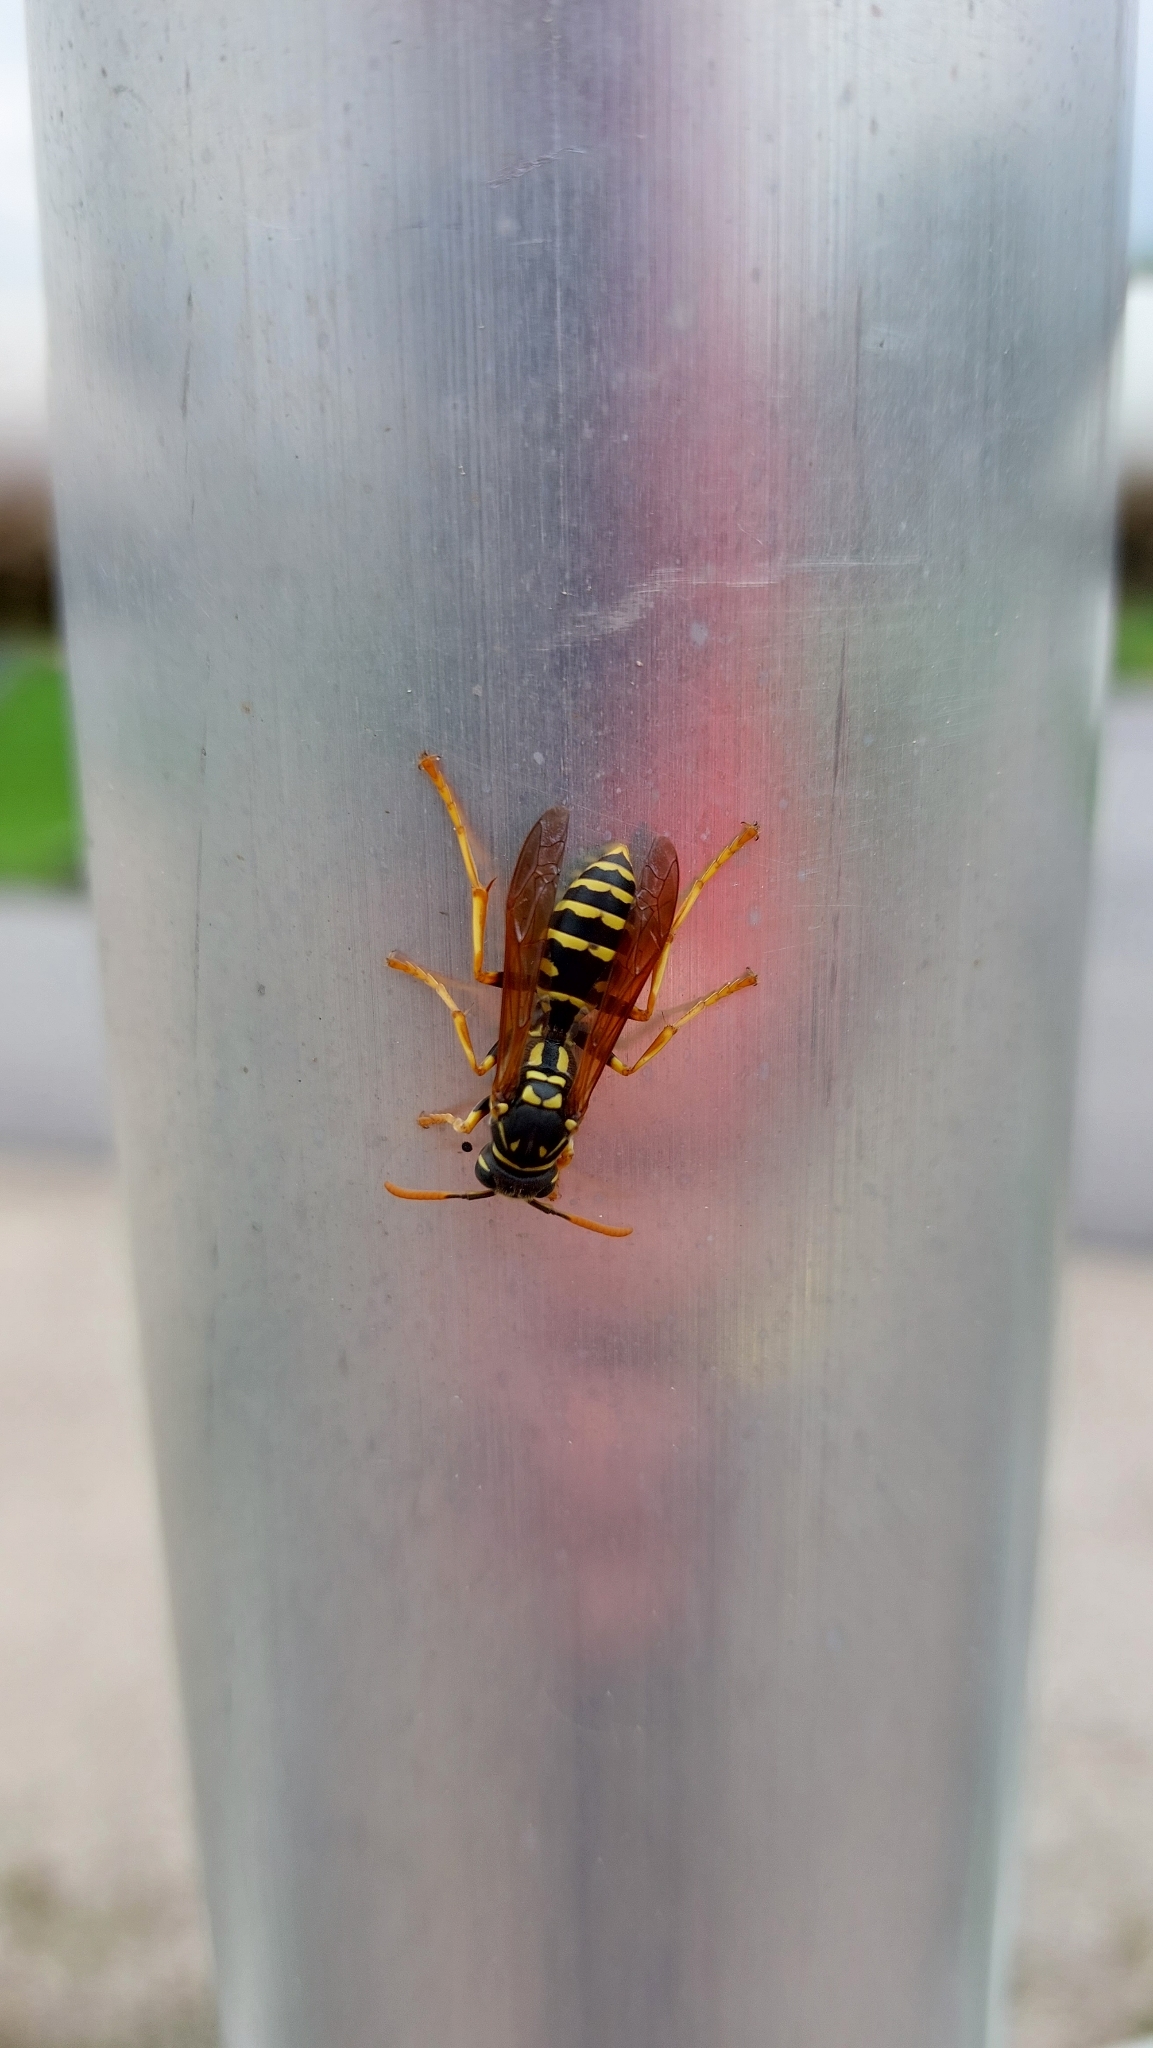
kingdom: Animalia
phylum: Arthropoda
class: Insecta
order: Hymenoptera
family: Eumenidae
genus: Polistes
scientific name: Polistes dominula
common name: Paper wasp
